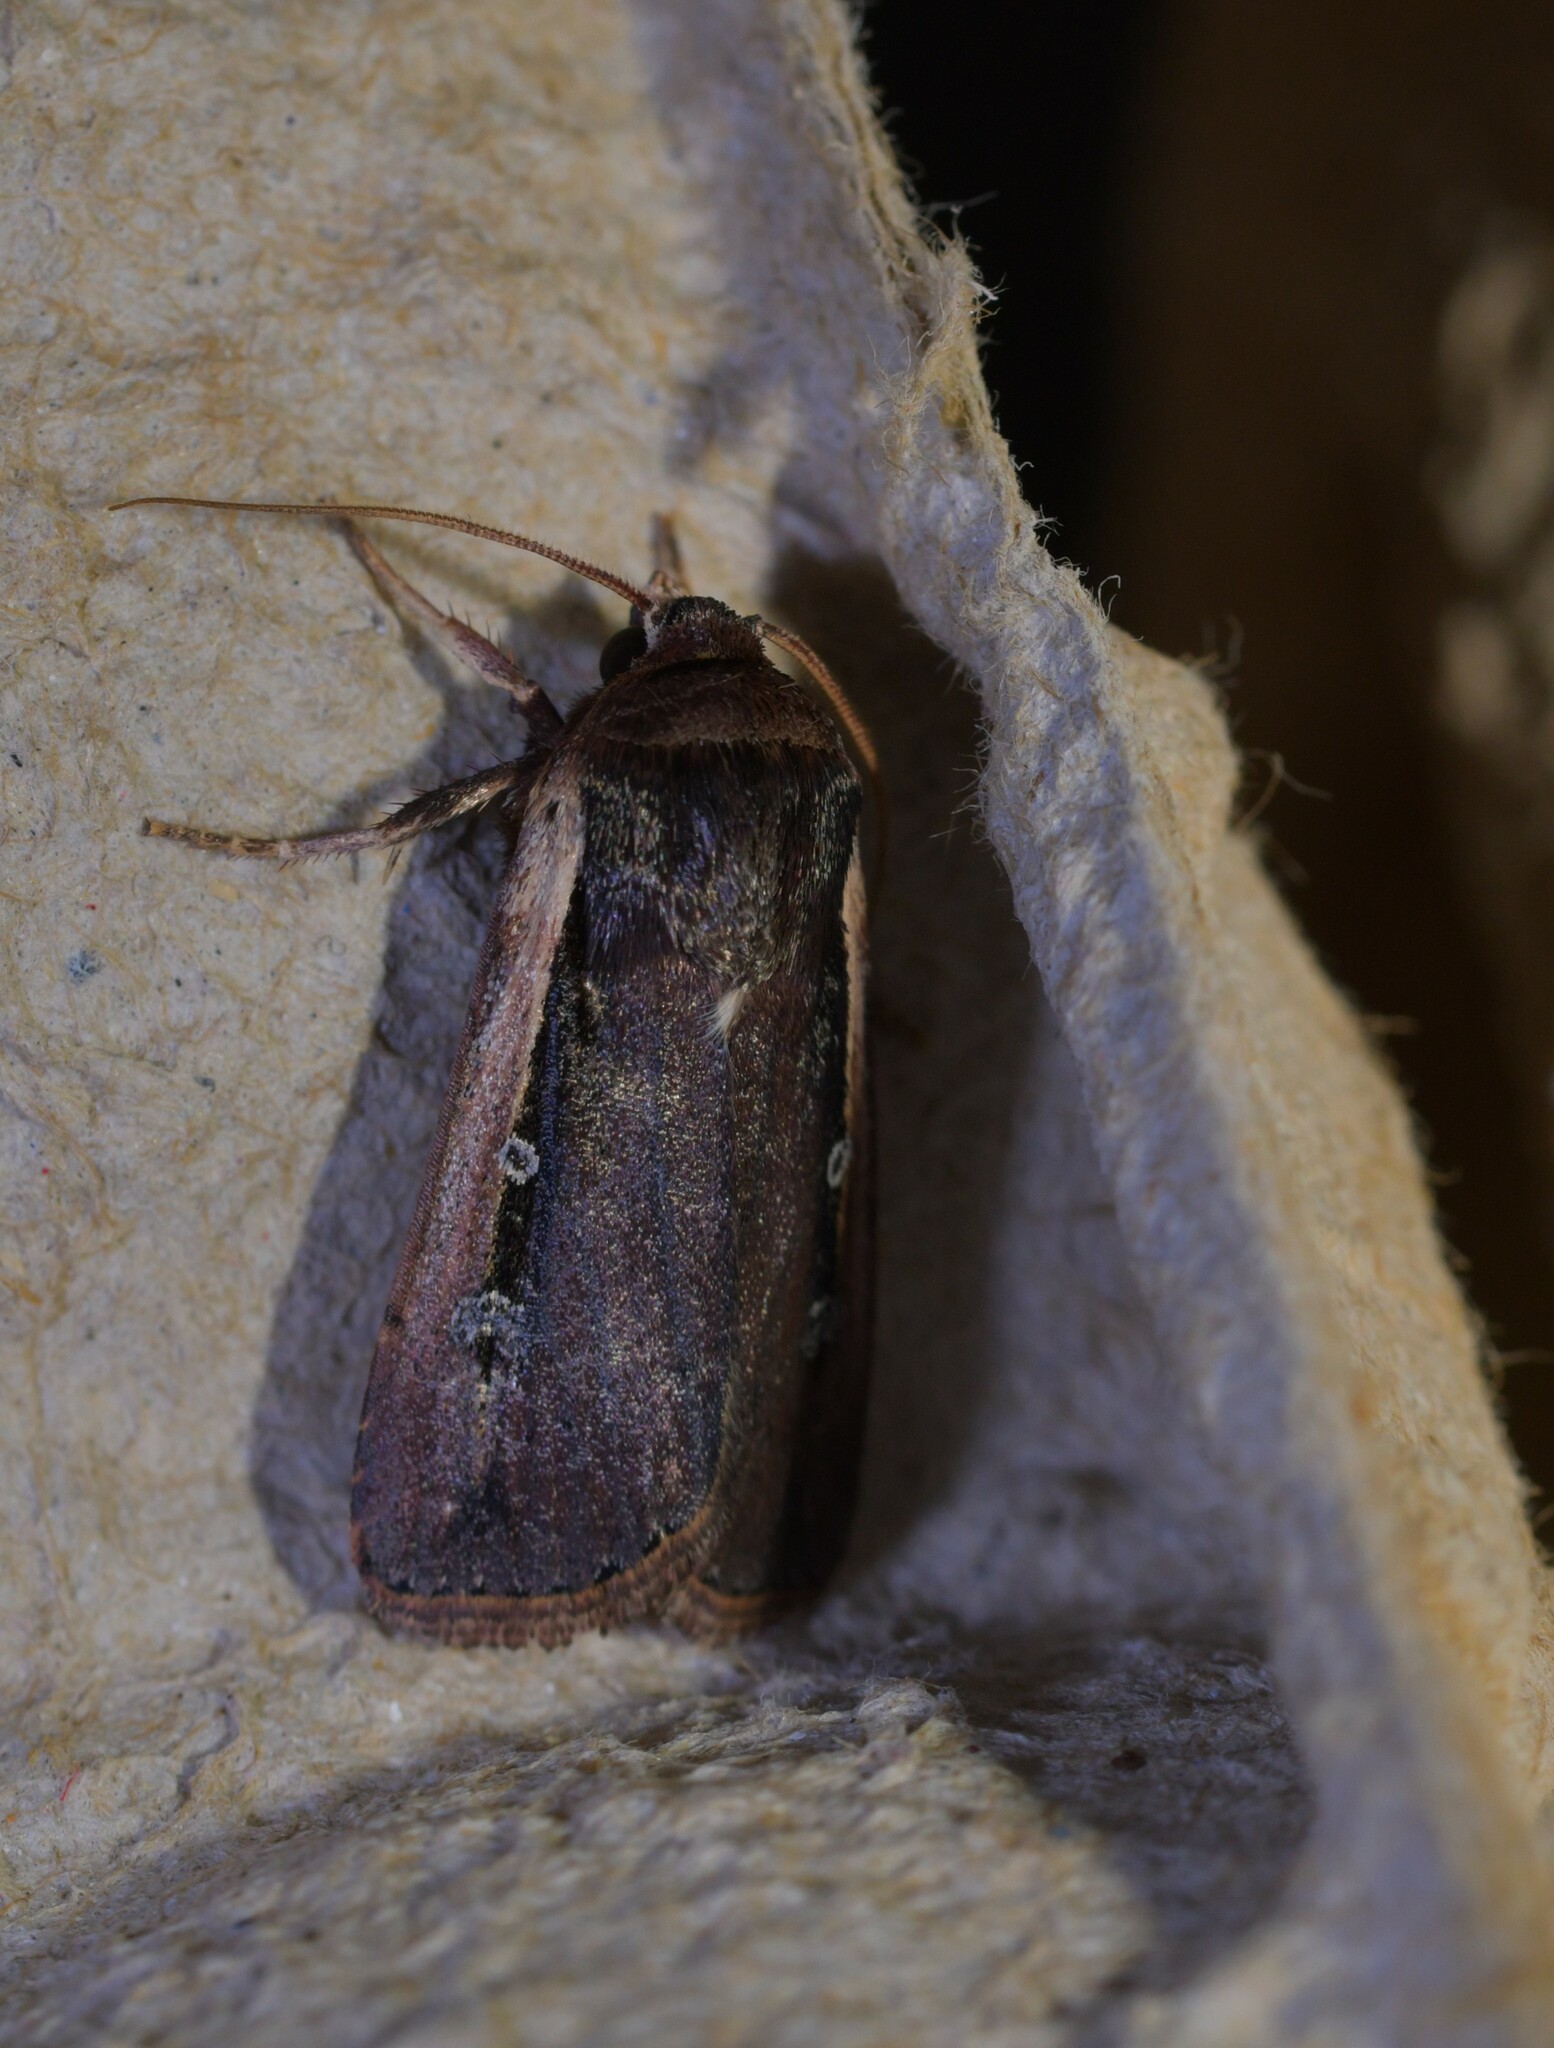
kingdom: Animalia
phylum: Arthropoda
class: Insecta
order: Lepidoptera
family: Noctuidae
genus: Ochropleura
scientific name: Ochropleura leucogaster
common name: Radford's flame shoulder
